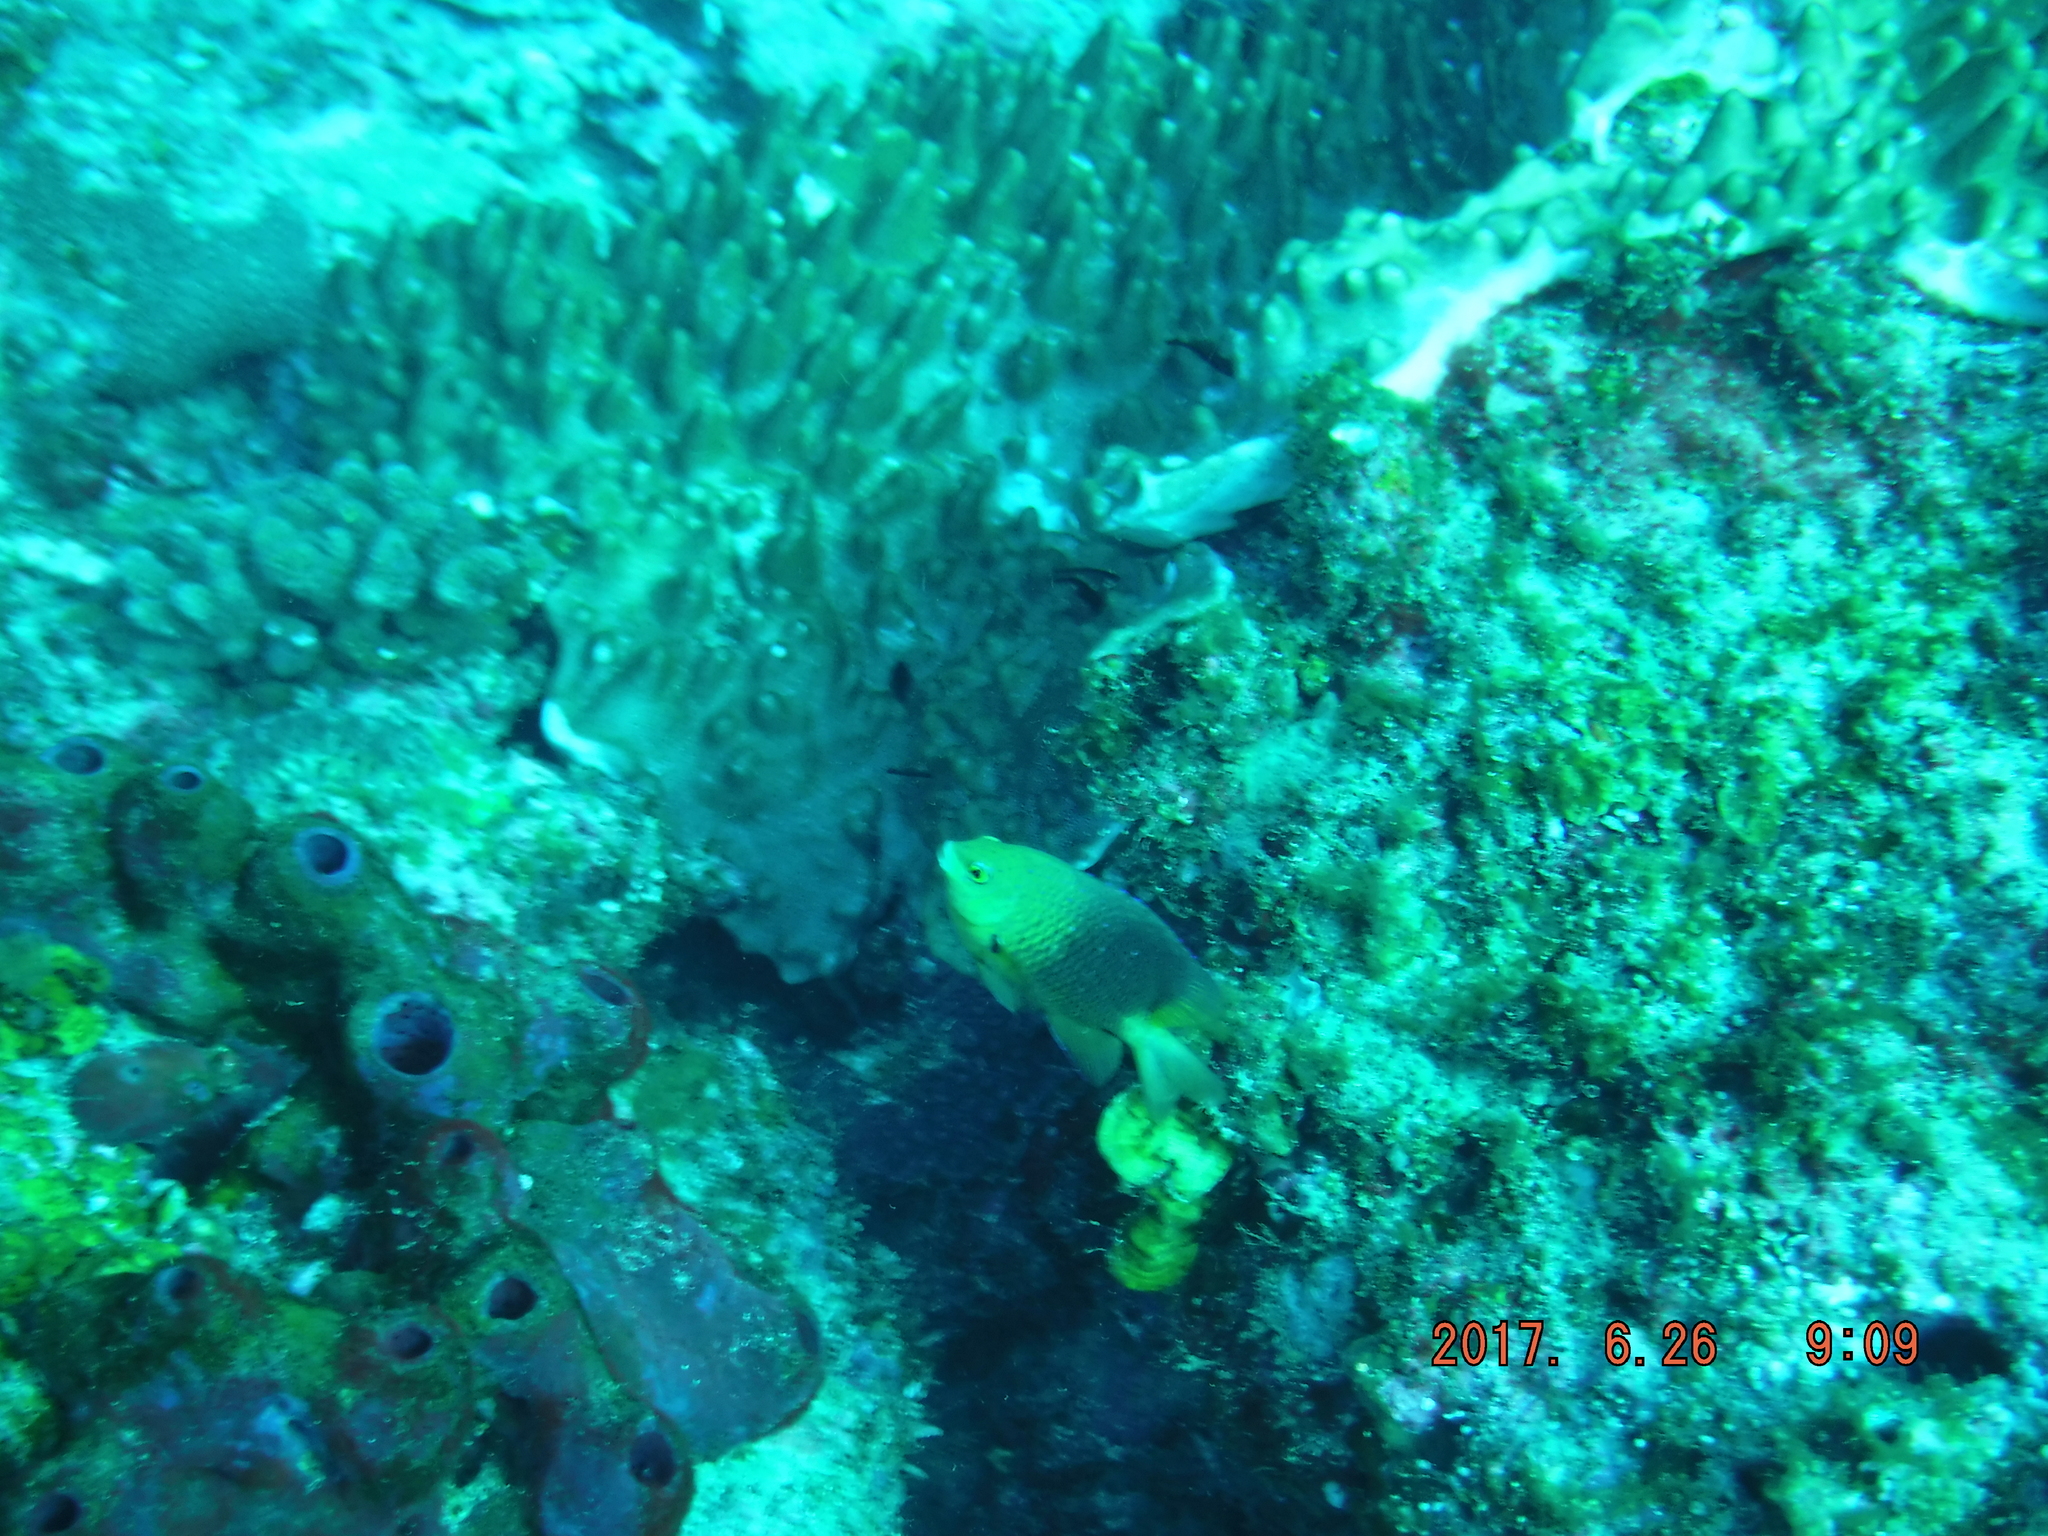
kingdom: Animalia
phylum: Chordata
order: Perciformes
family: Pomacentridae
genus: Plectroglyphidodon
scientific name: Plectroglyphidodon lacrymatus
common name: Jewel damsel
